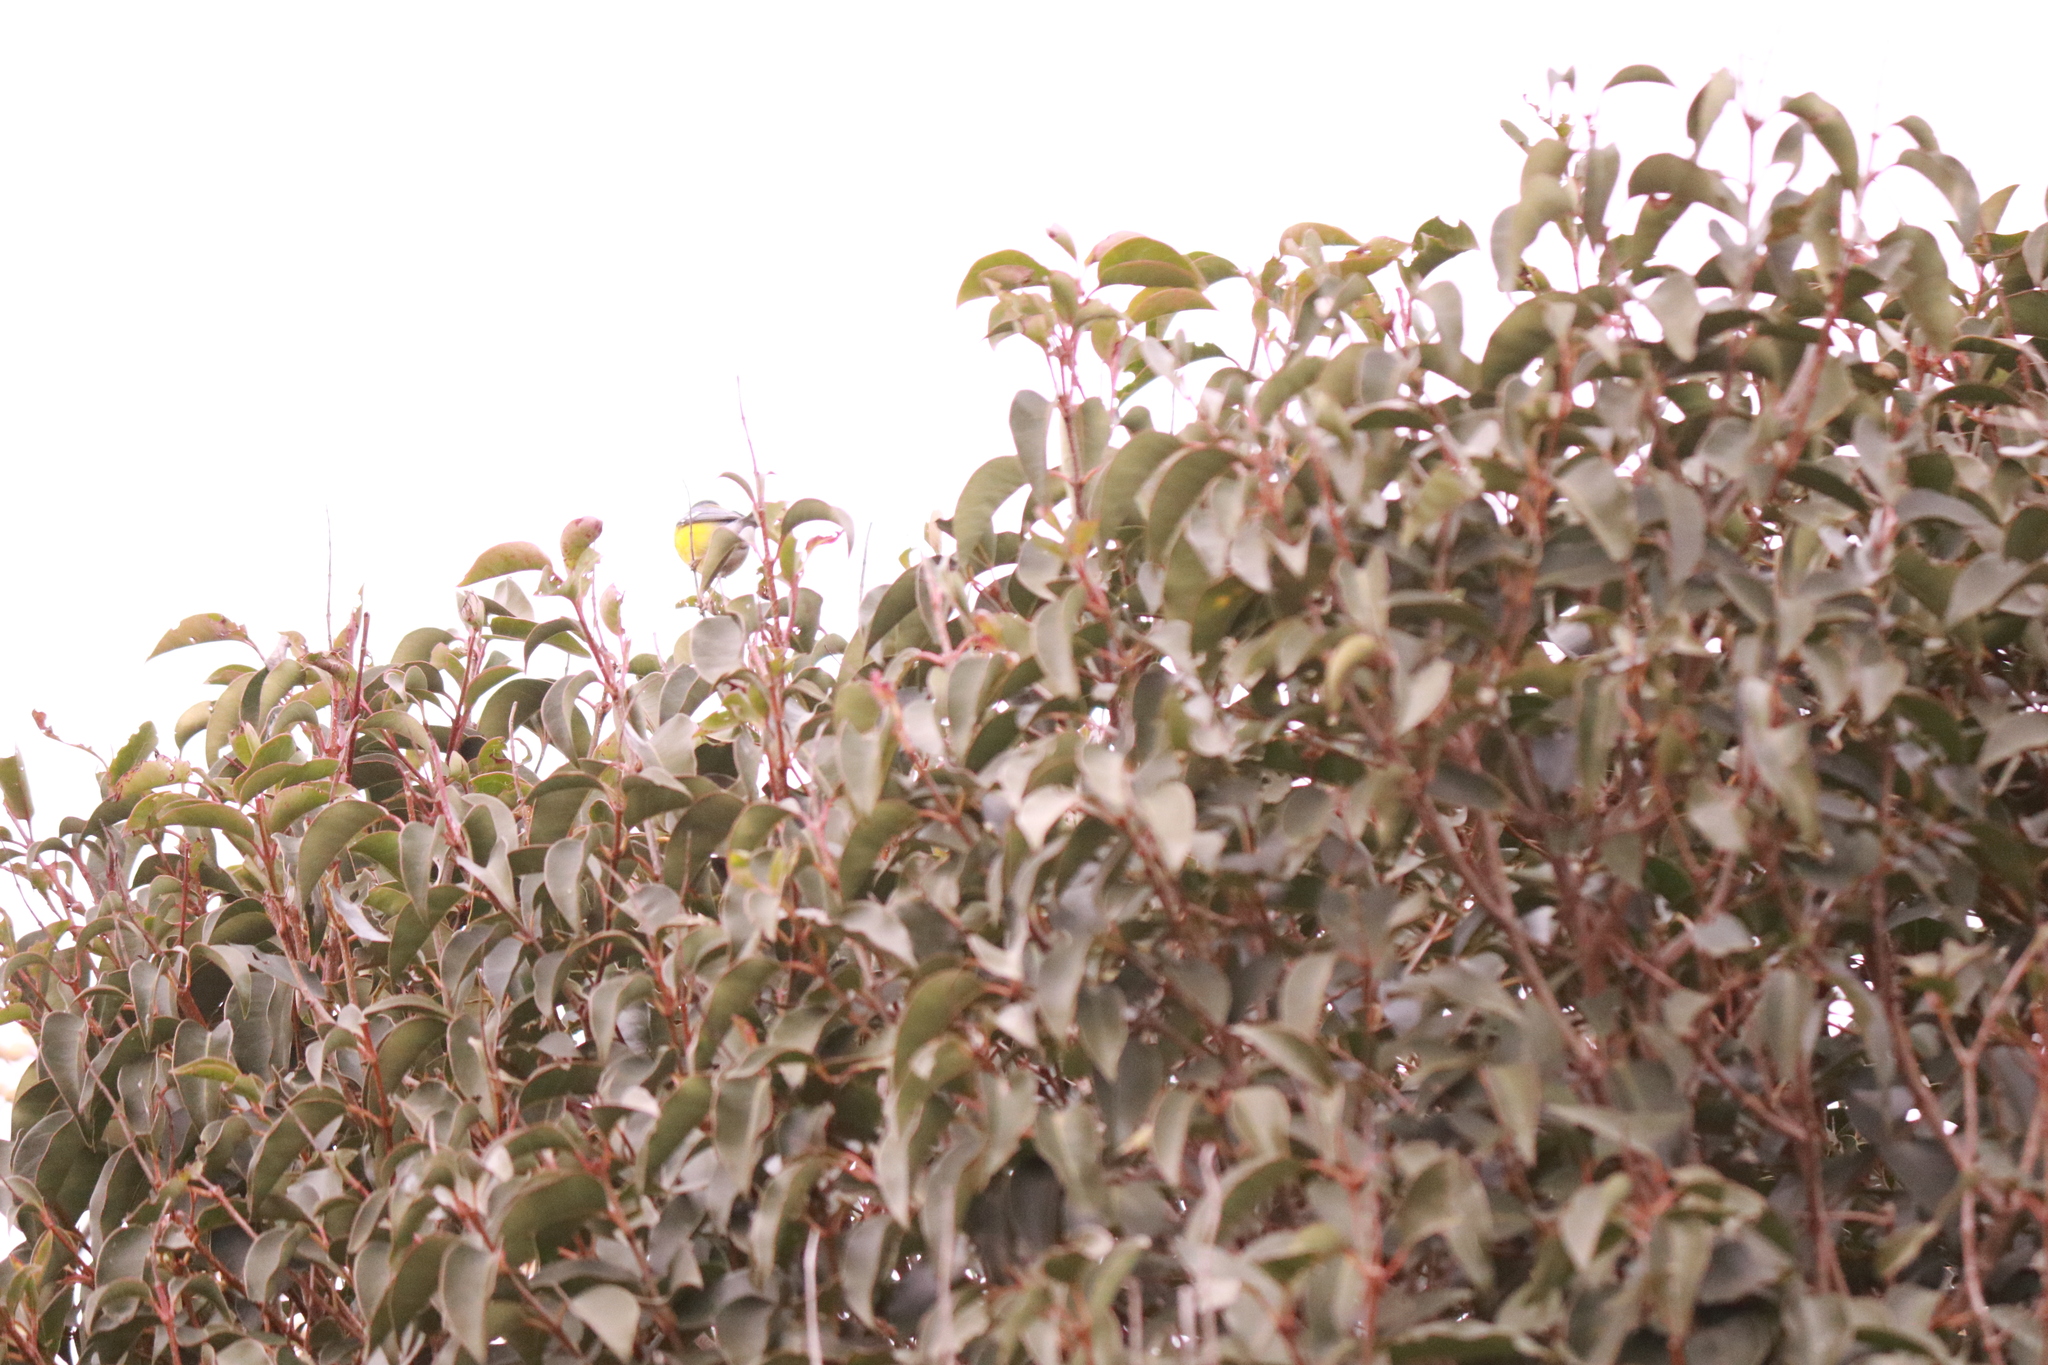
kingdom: Animalia
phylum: Chordata
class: Aves
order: Passeriformes
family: Parulidae
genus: Setophaga
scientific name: Setophaga pitiayumi
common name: Tropical parula
